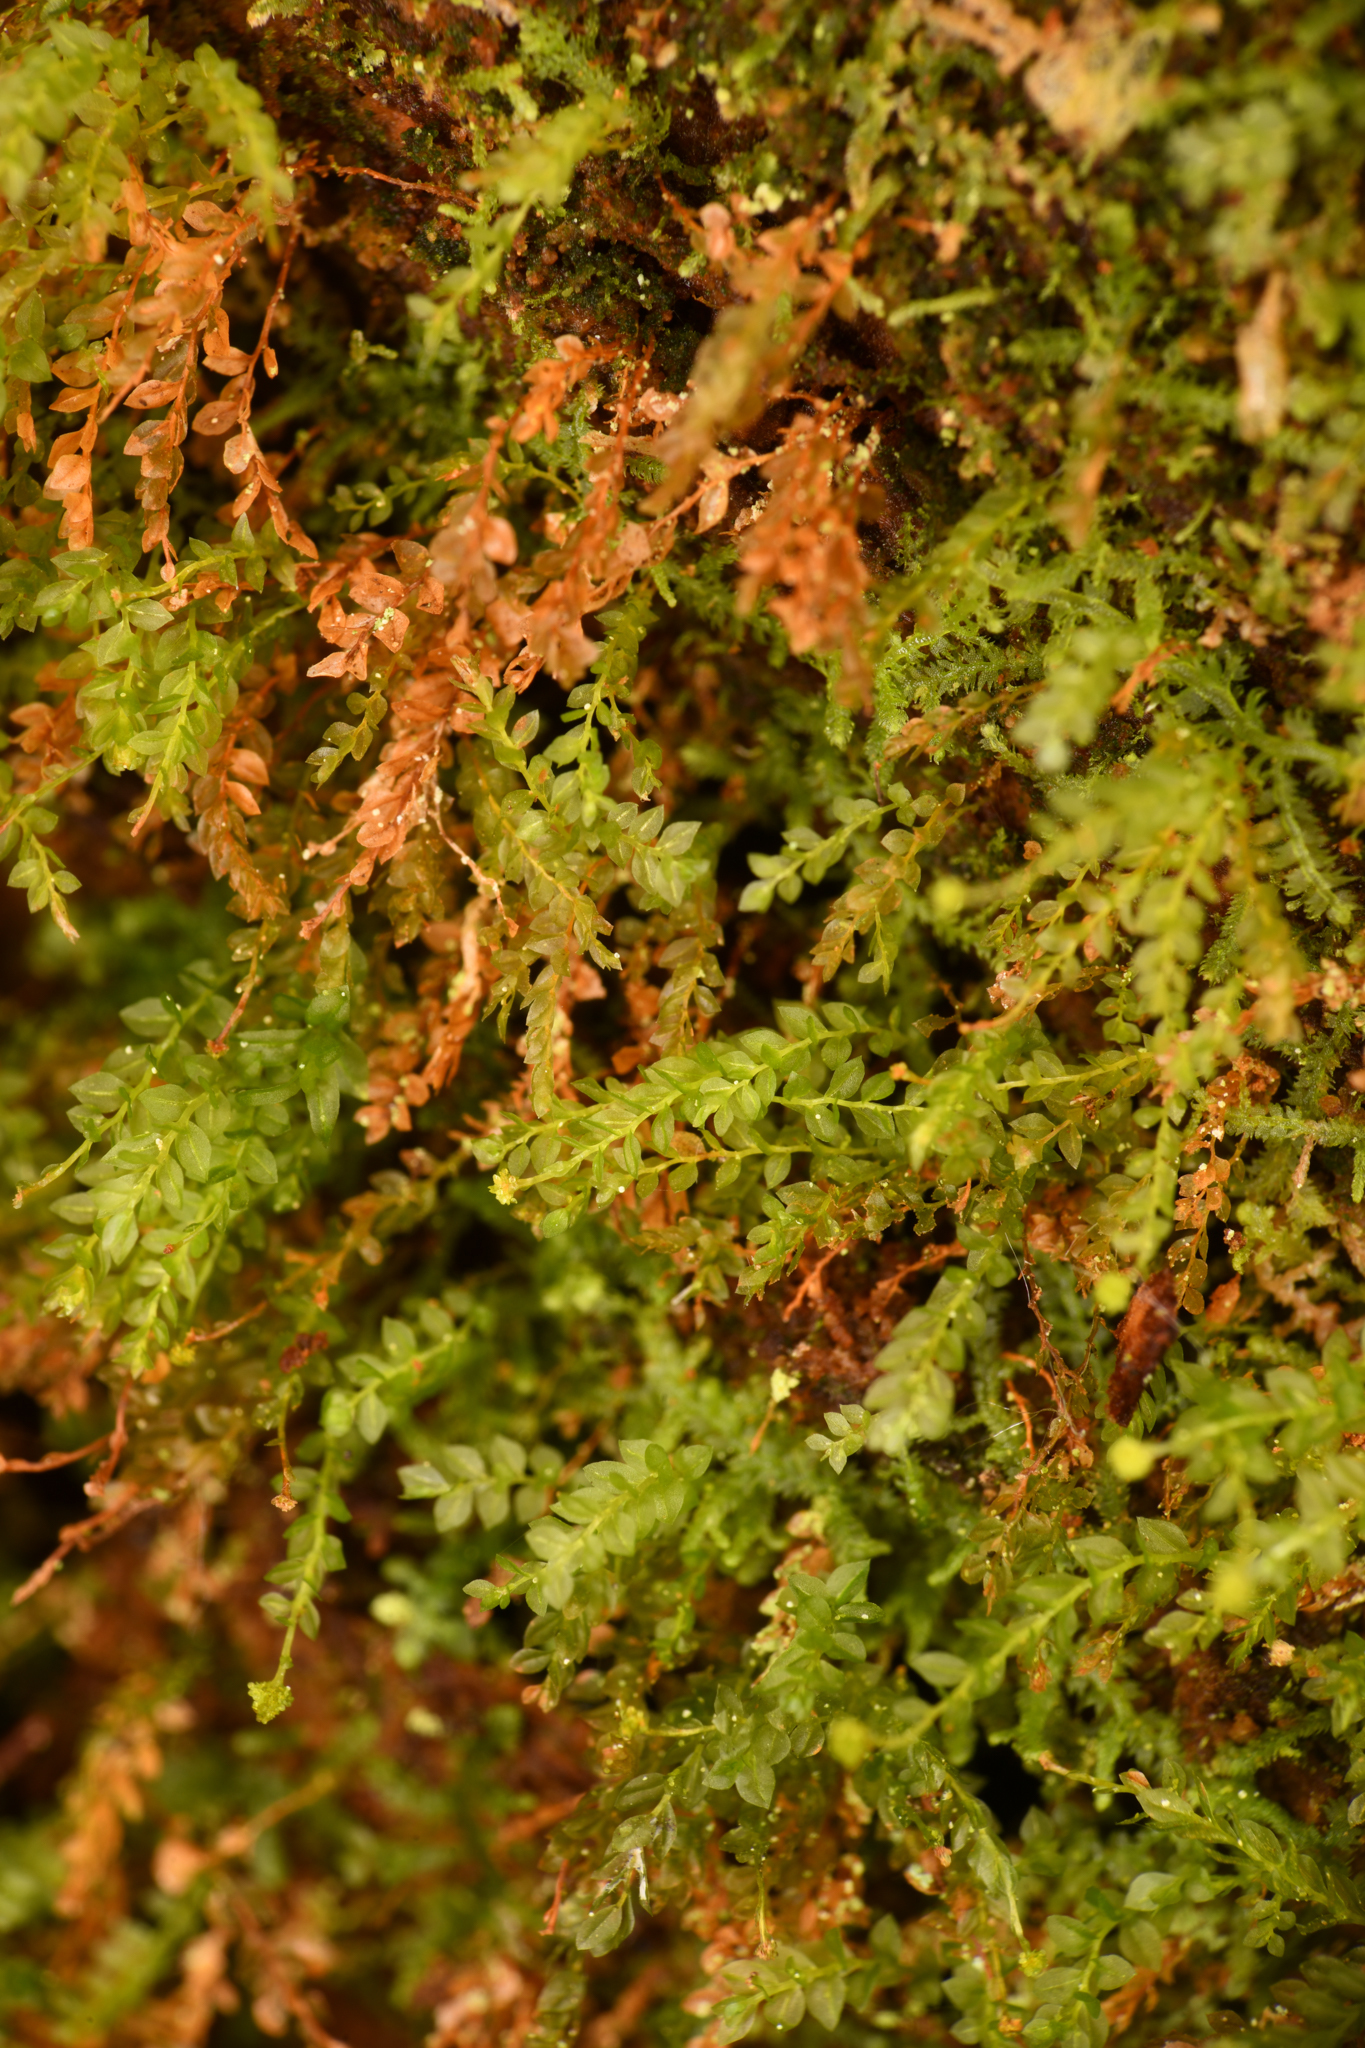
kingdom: Plantae
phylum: Bryophyta
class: Polytrichopsida
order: Tetraphidales
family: Tetraphidaceae
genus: Tetraphis
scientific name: Tetraphis pellucida
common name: Common four-toothed moss
